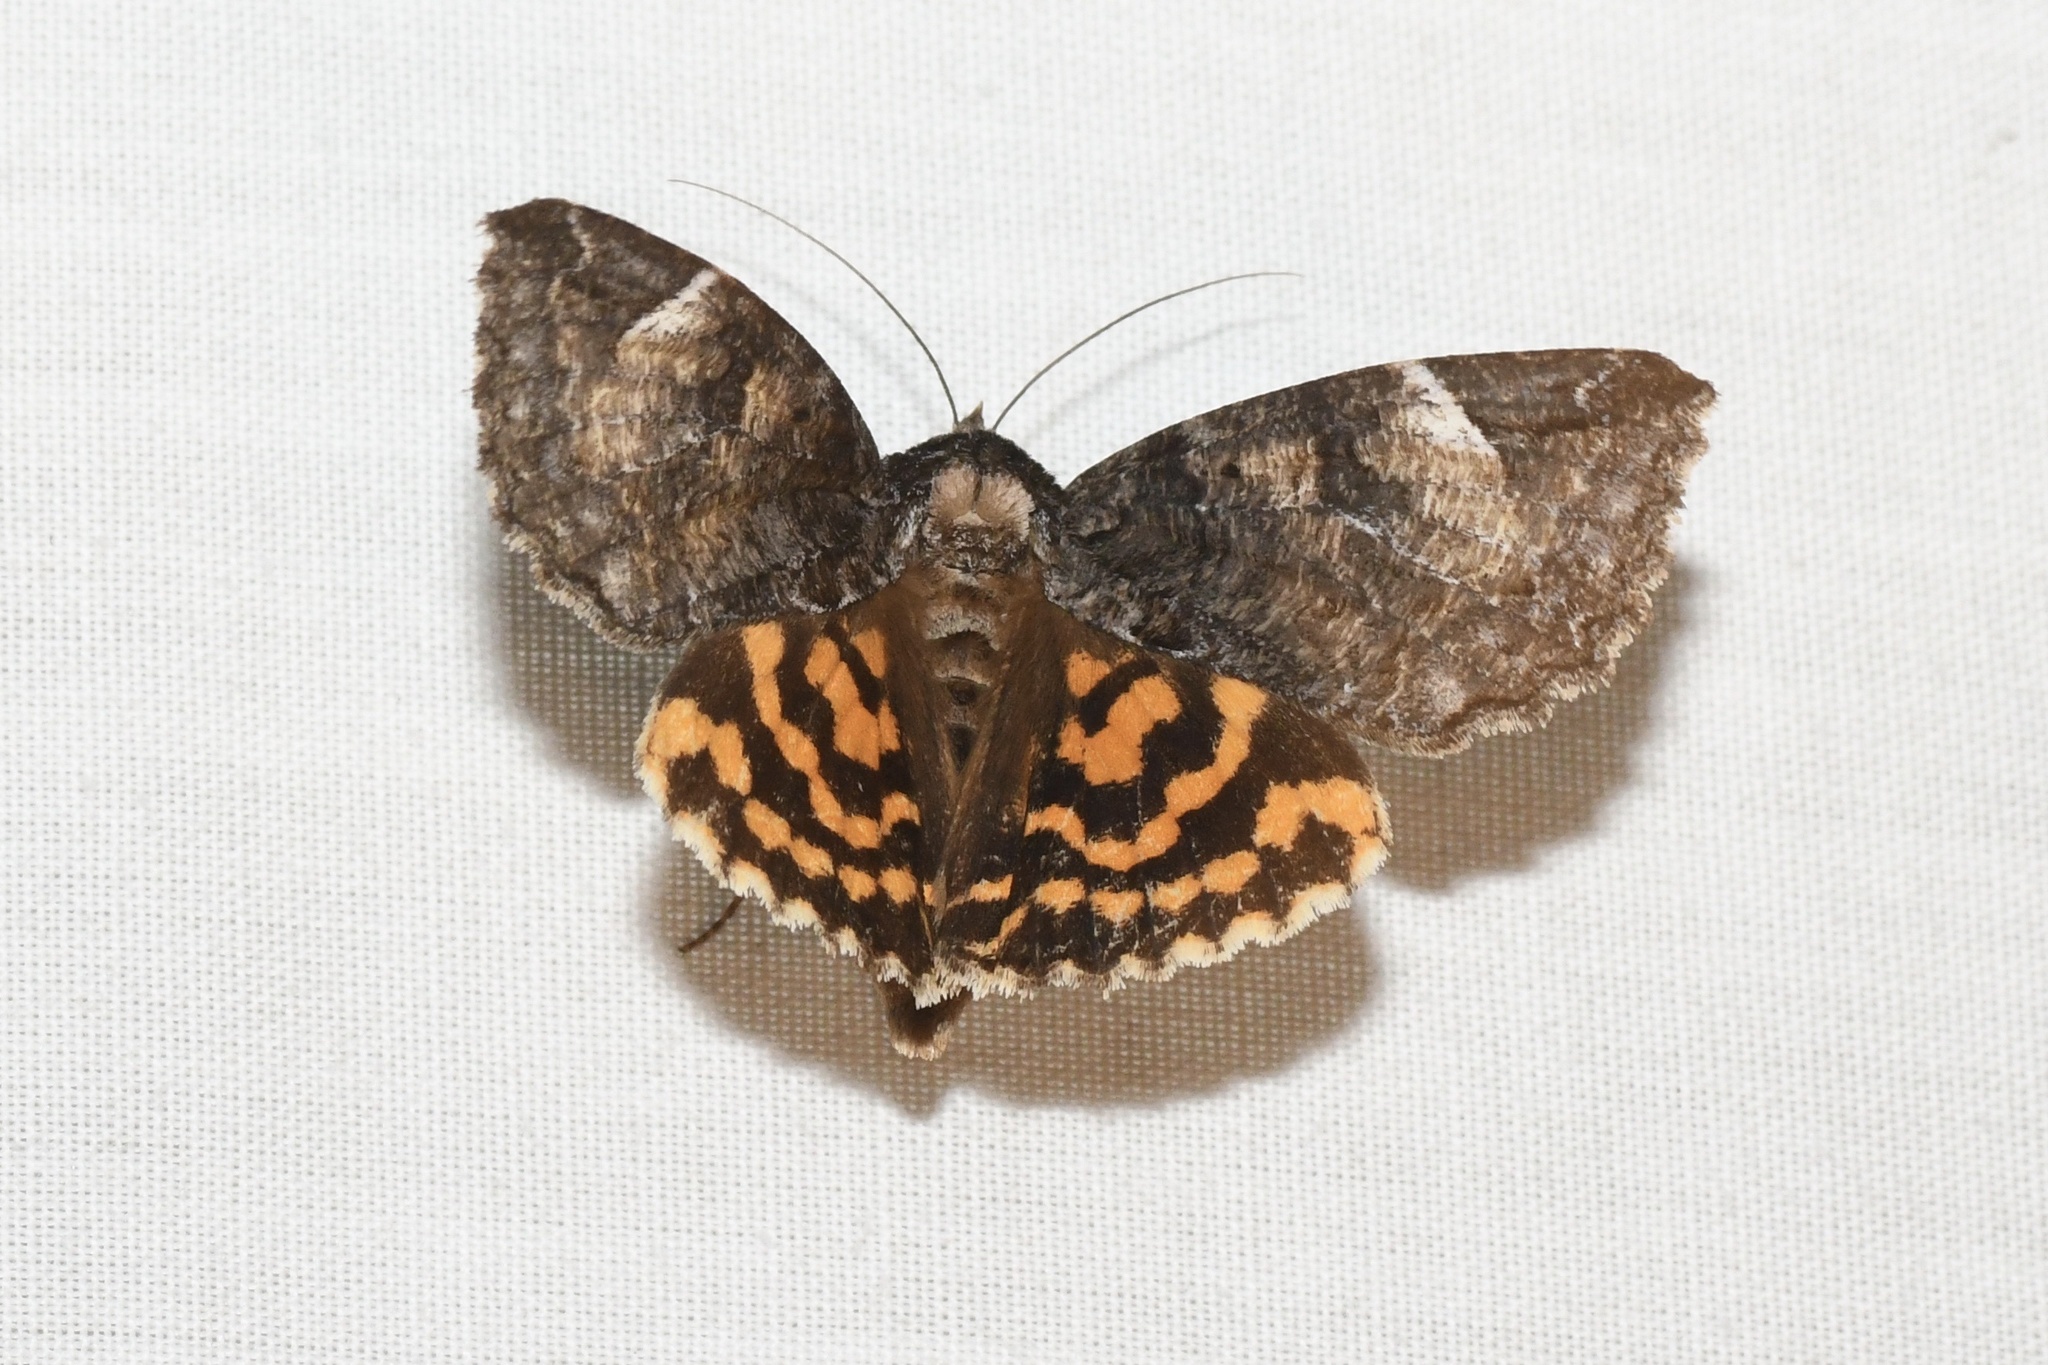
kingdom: Animalia
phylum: Arthropoda
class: Insecta
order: Lepidoptera
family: Erebidae
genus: Euparthenos
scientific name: Euparthenos nubilis
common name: Locust underwing
